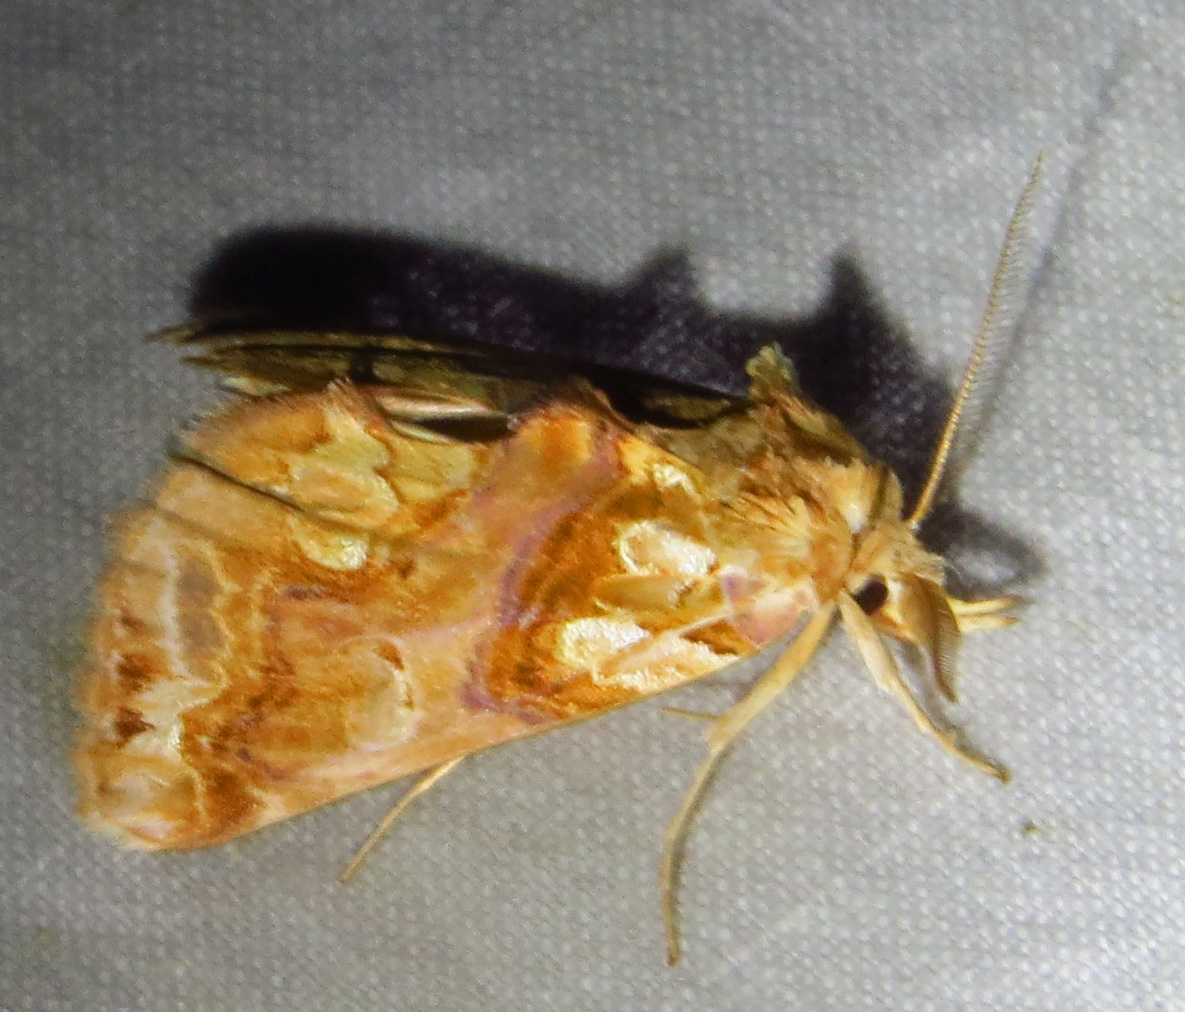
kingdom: Animalia
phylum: Arthropoda
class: Insecta
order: Lepidoptera
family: Erebidae
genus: Plusiodonta
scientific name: Plusiodonta compressipalpis
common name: Moonseed moth
